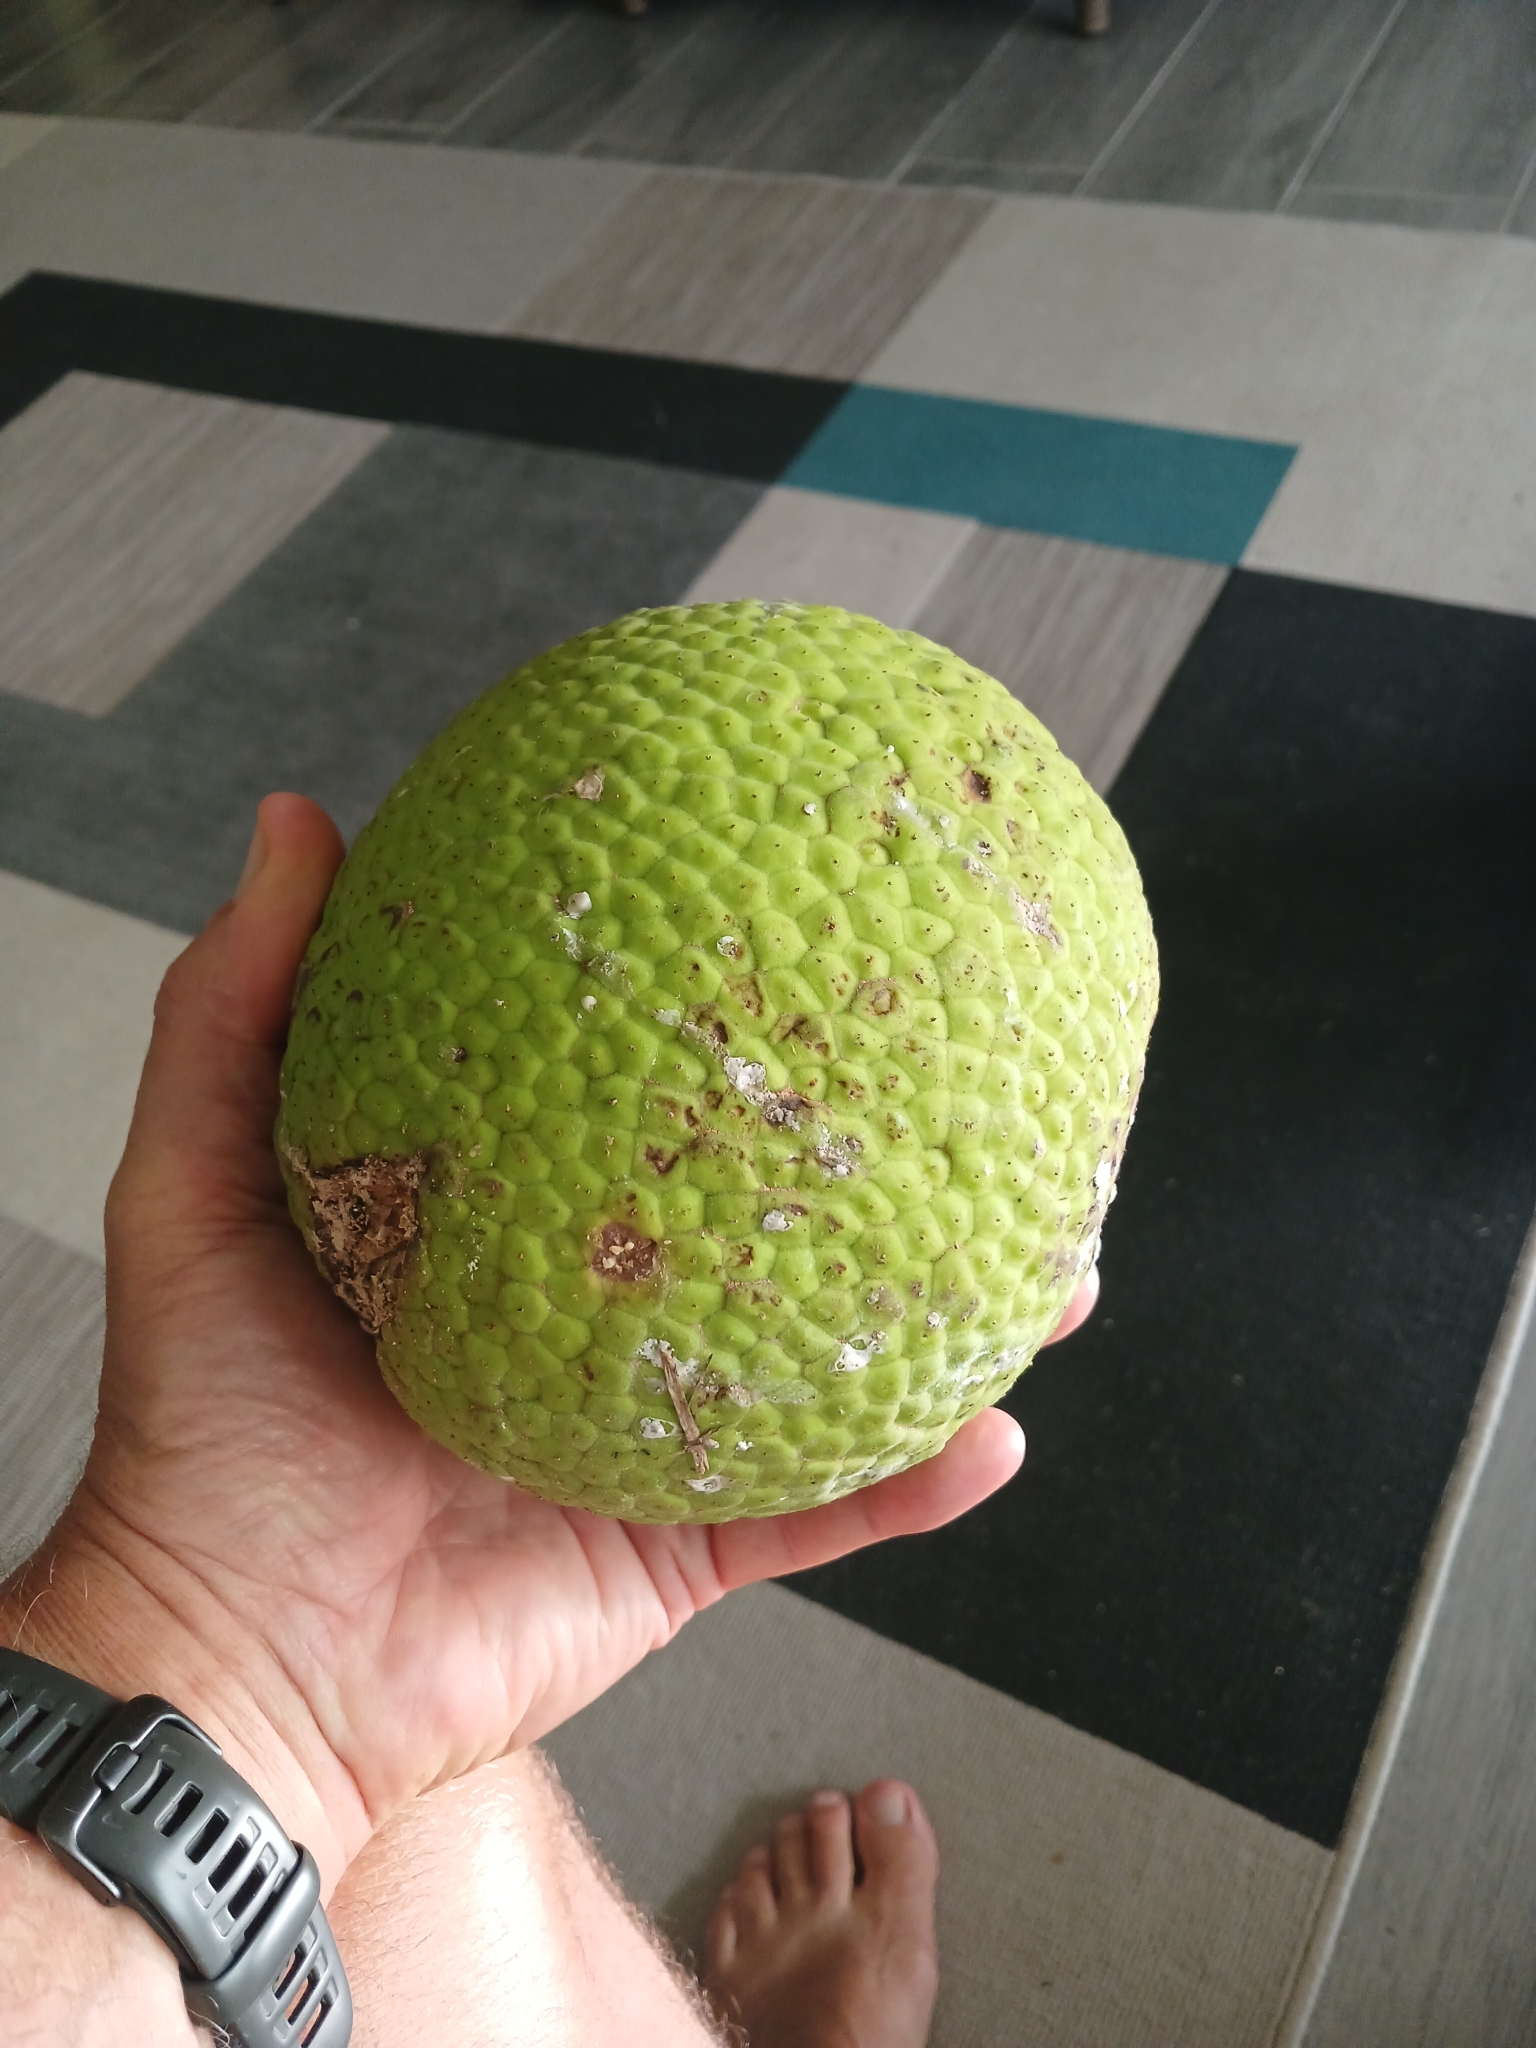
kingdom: Plantae
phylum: Tracheophyta
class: Magnoliopsida
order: Rosales
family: Moraceae
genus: Artocarpus
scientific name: Artocarpus altilis
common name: Breadfruit
